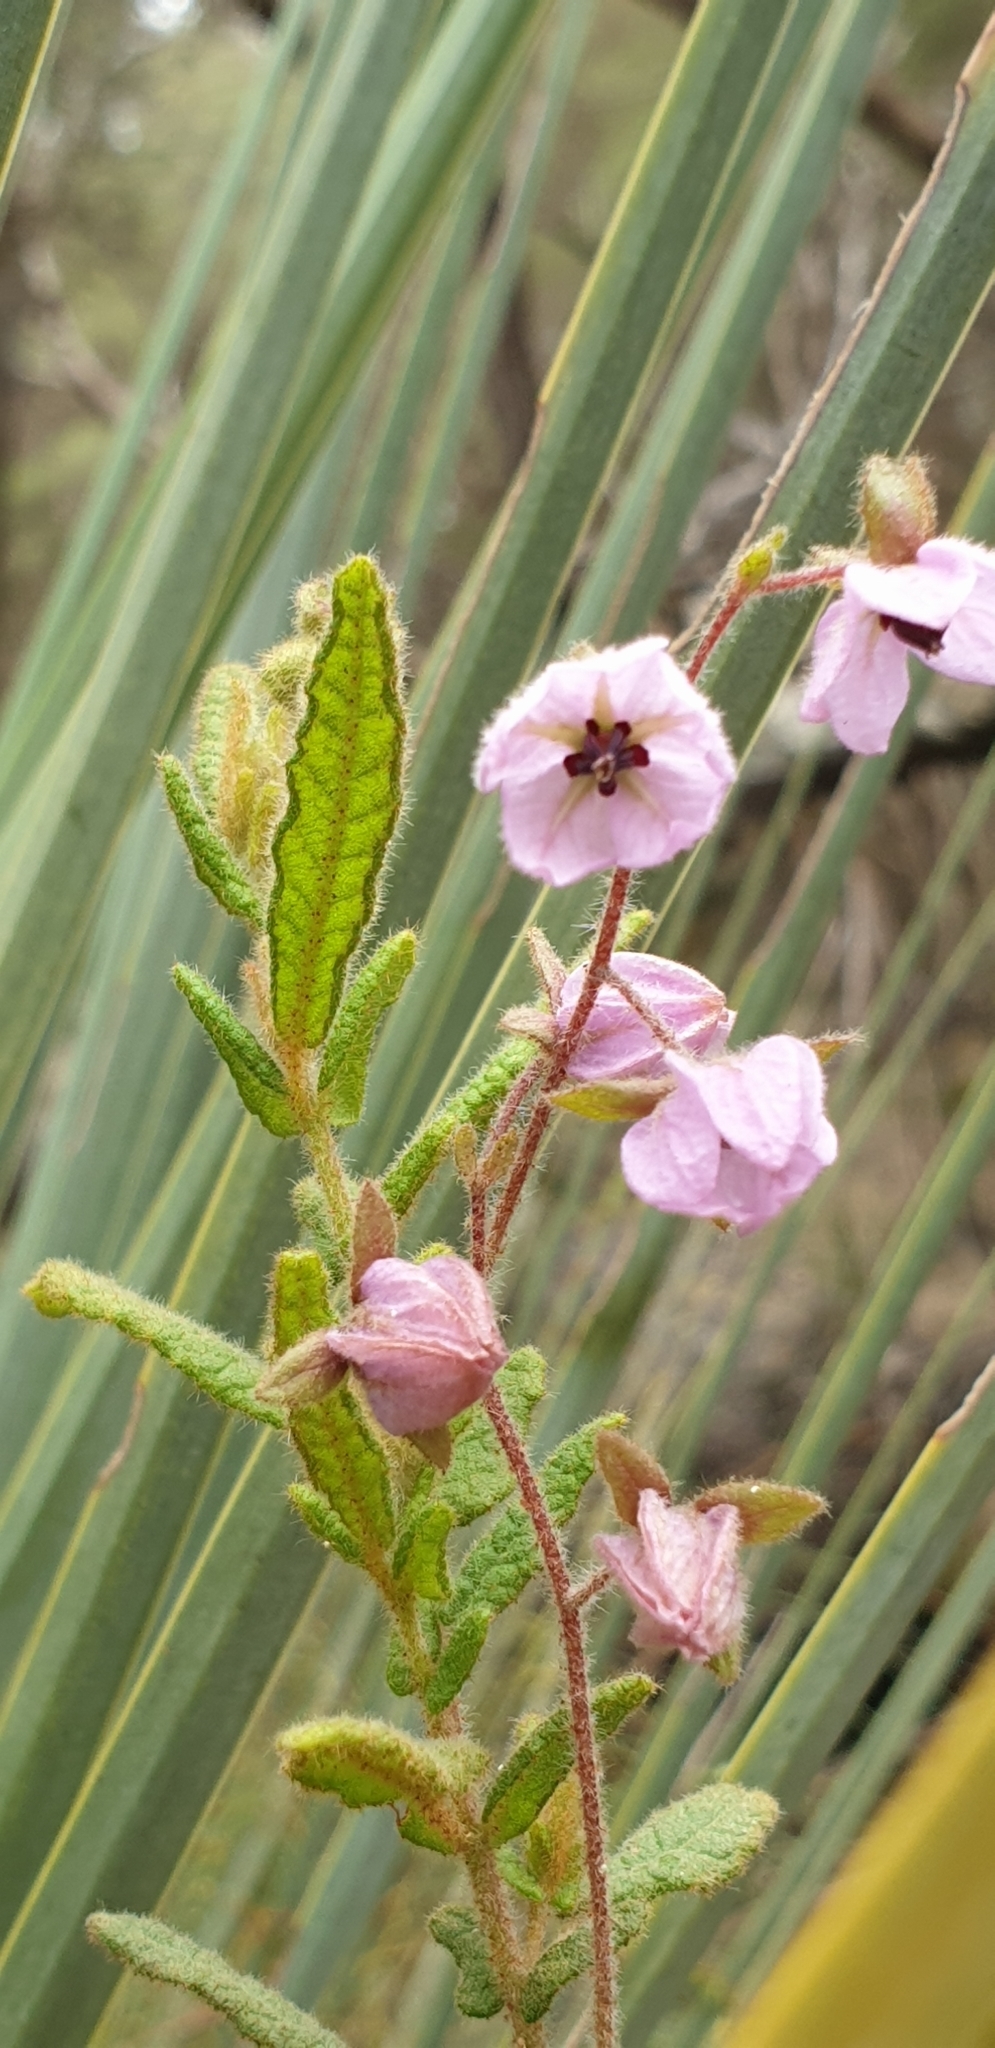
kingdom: Plantae
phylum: Tracheophyta
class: Magnoliopsida
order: Malvales
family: Malvaceae
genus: Thomasia
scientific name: Thomasia petalocalyx
